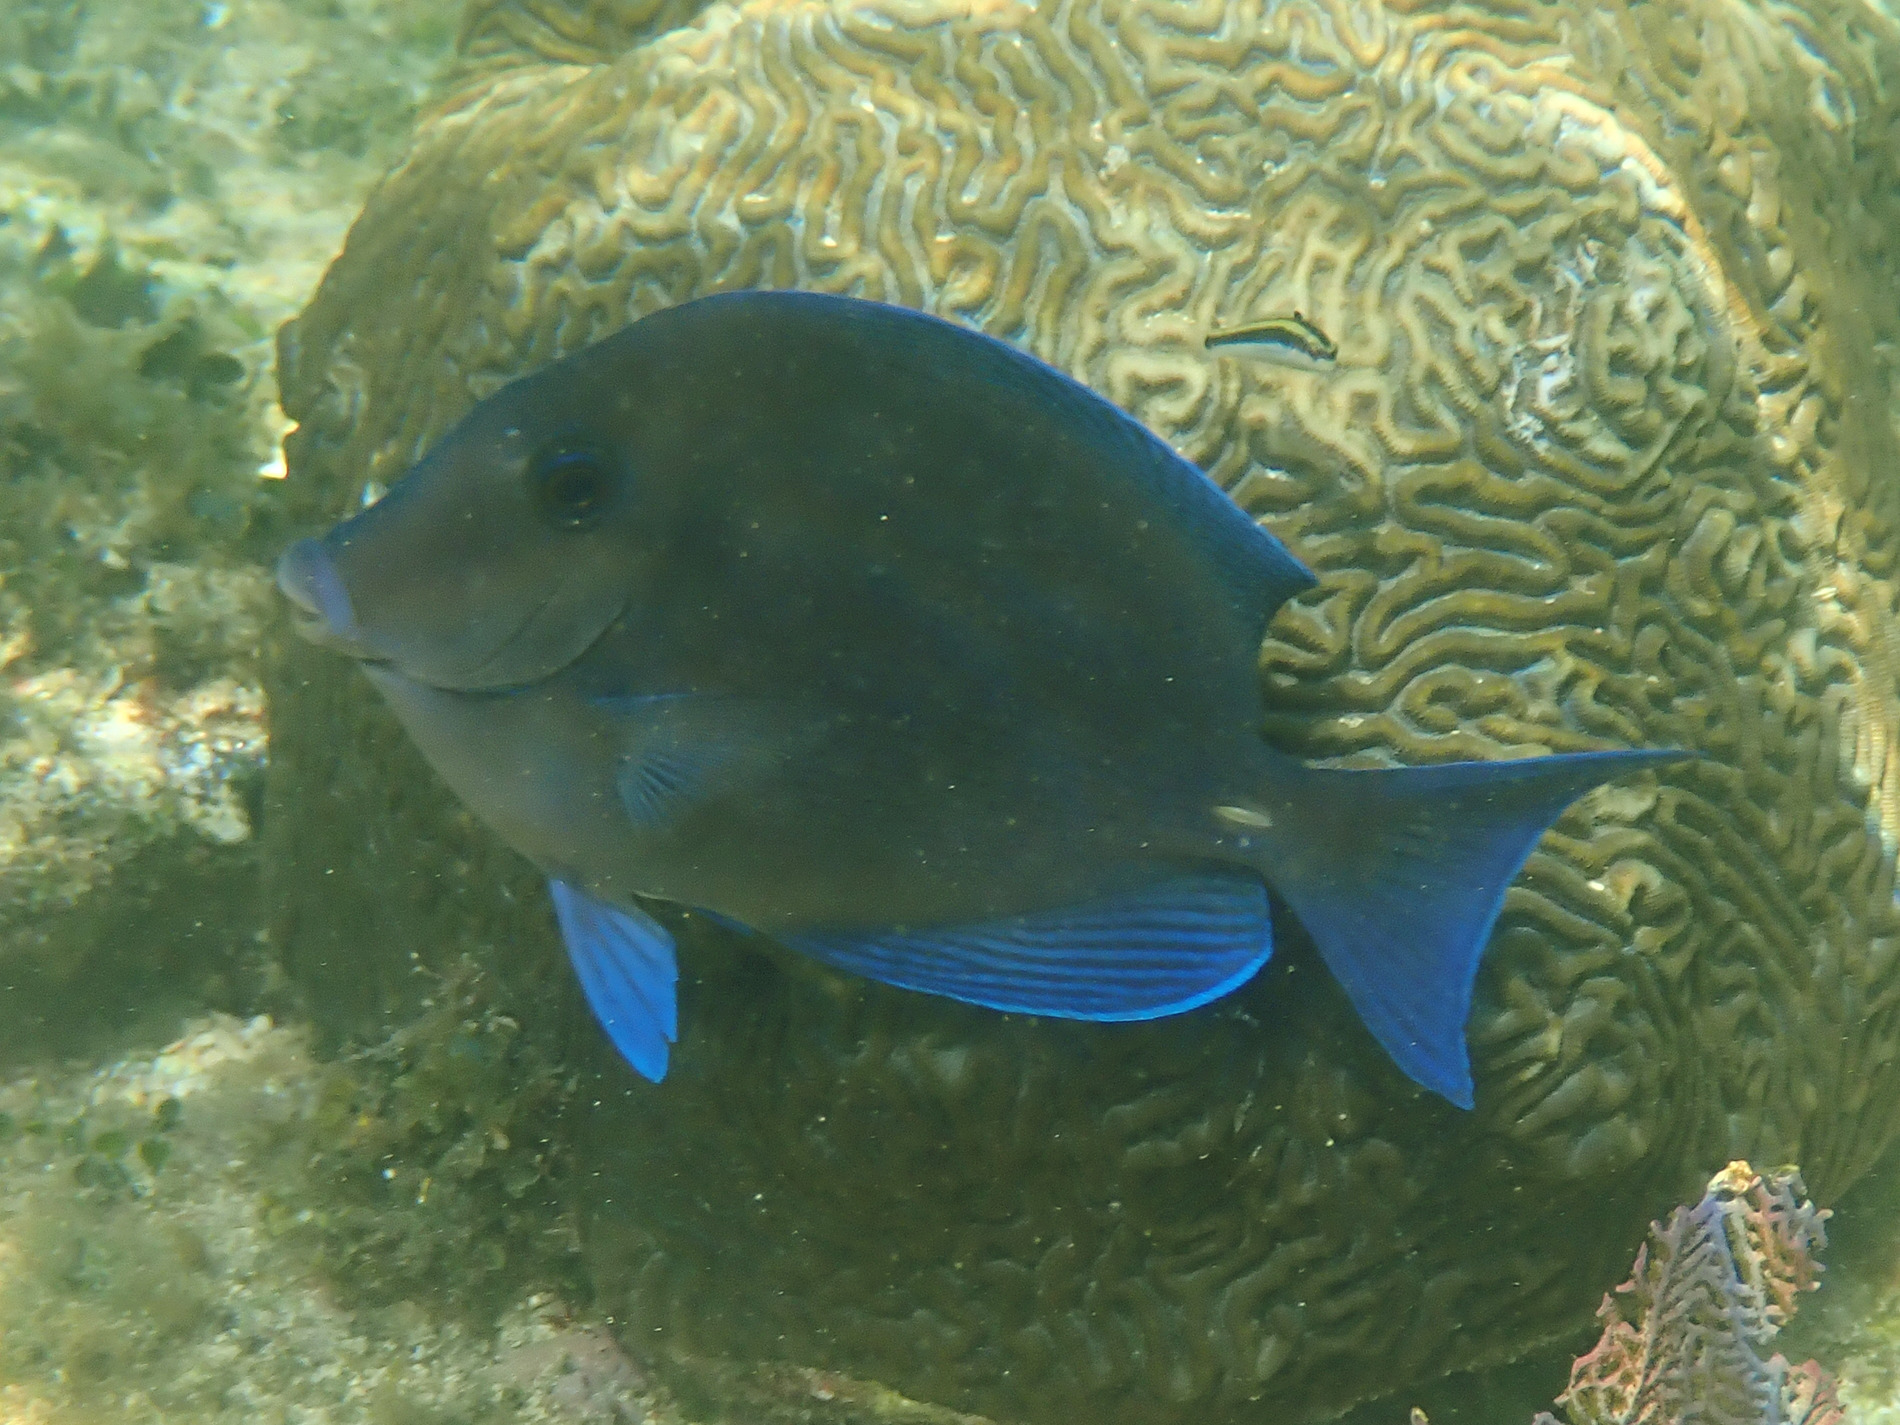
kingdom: Animalia
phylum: Chordata
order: Perciformes
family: Acanthuridae
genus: Acanthurus
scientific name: Acanthurus coeruleus
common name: Blue tang
